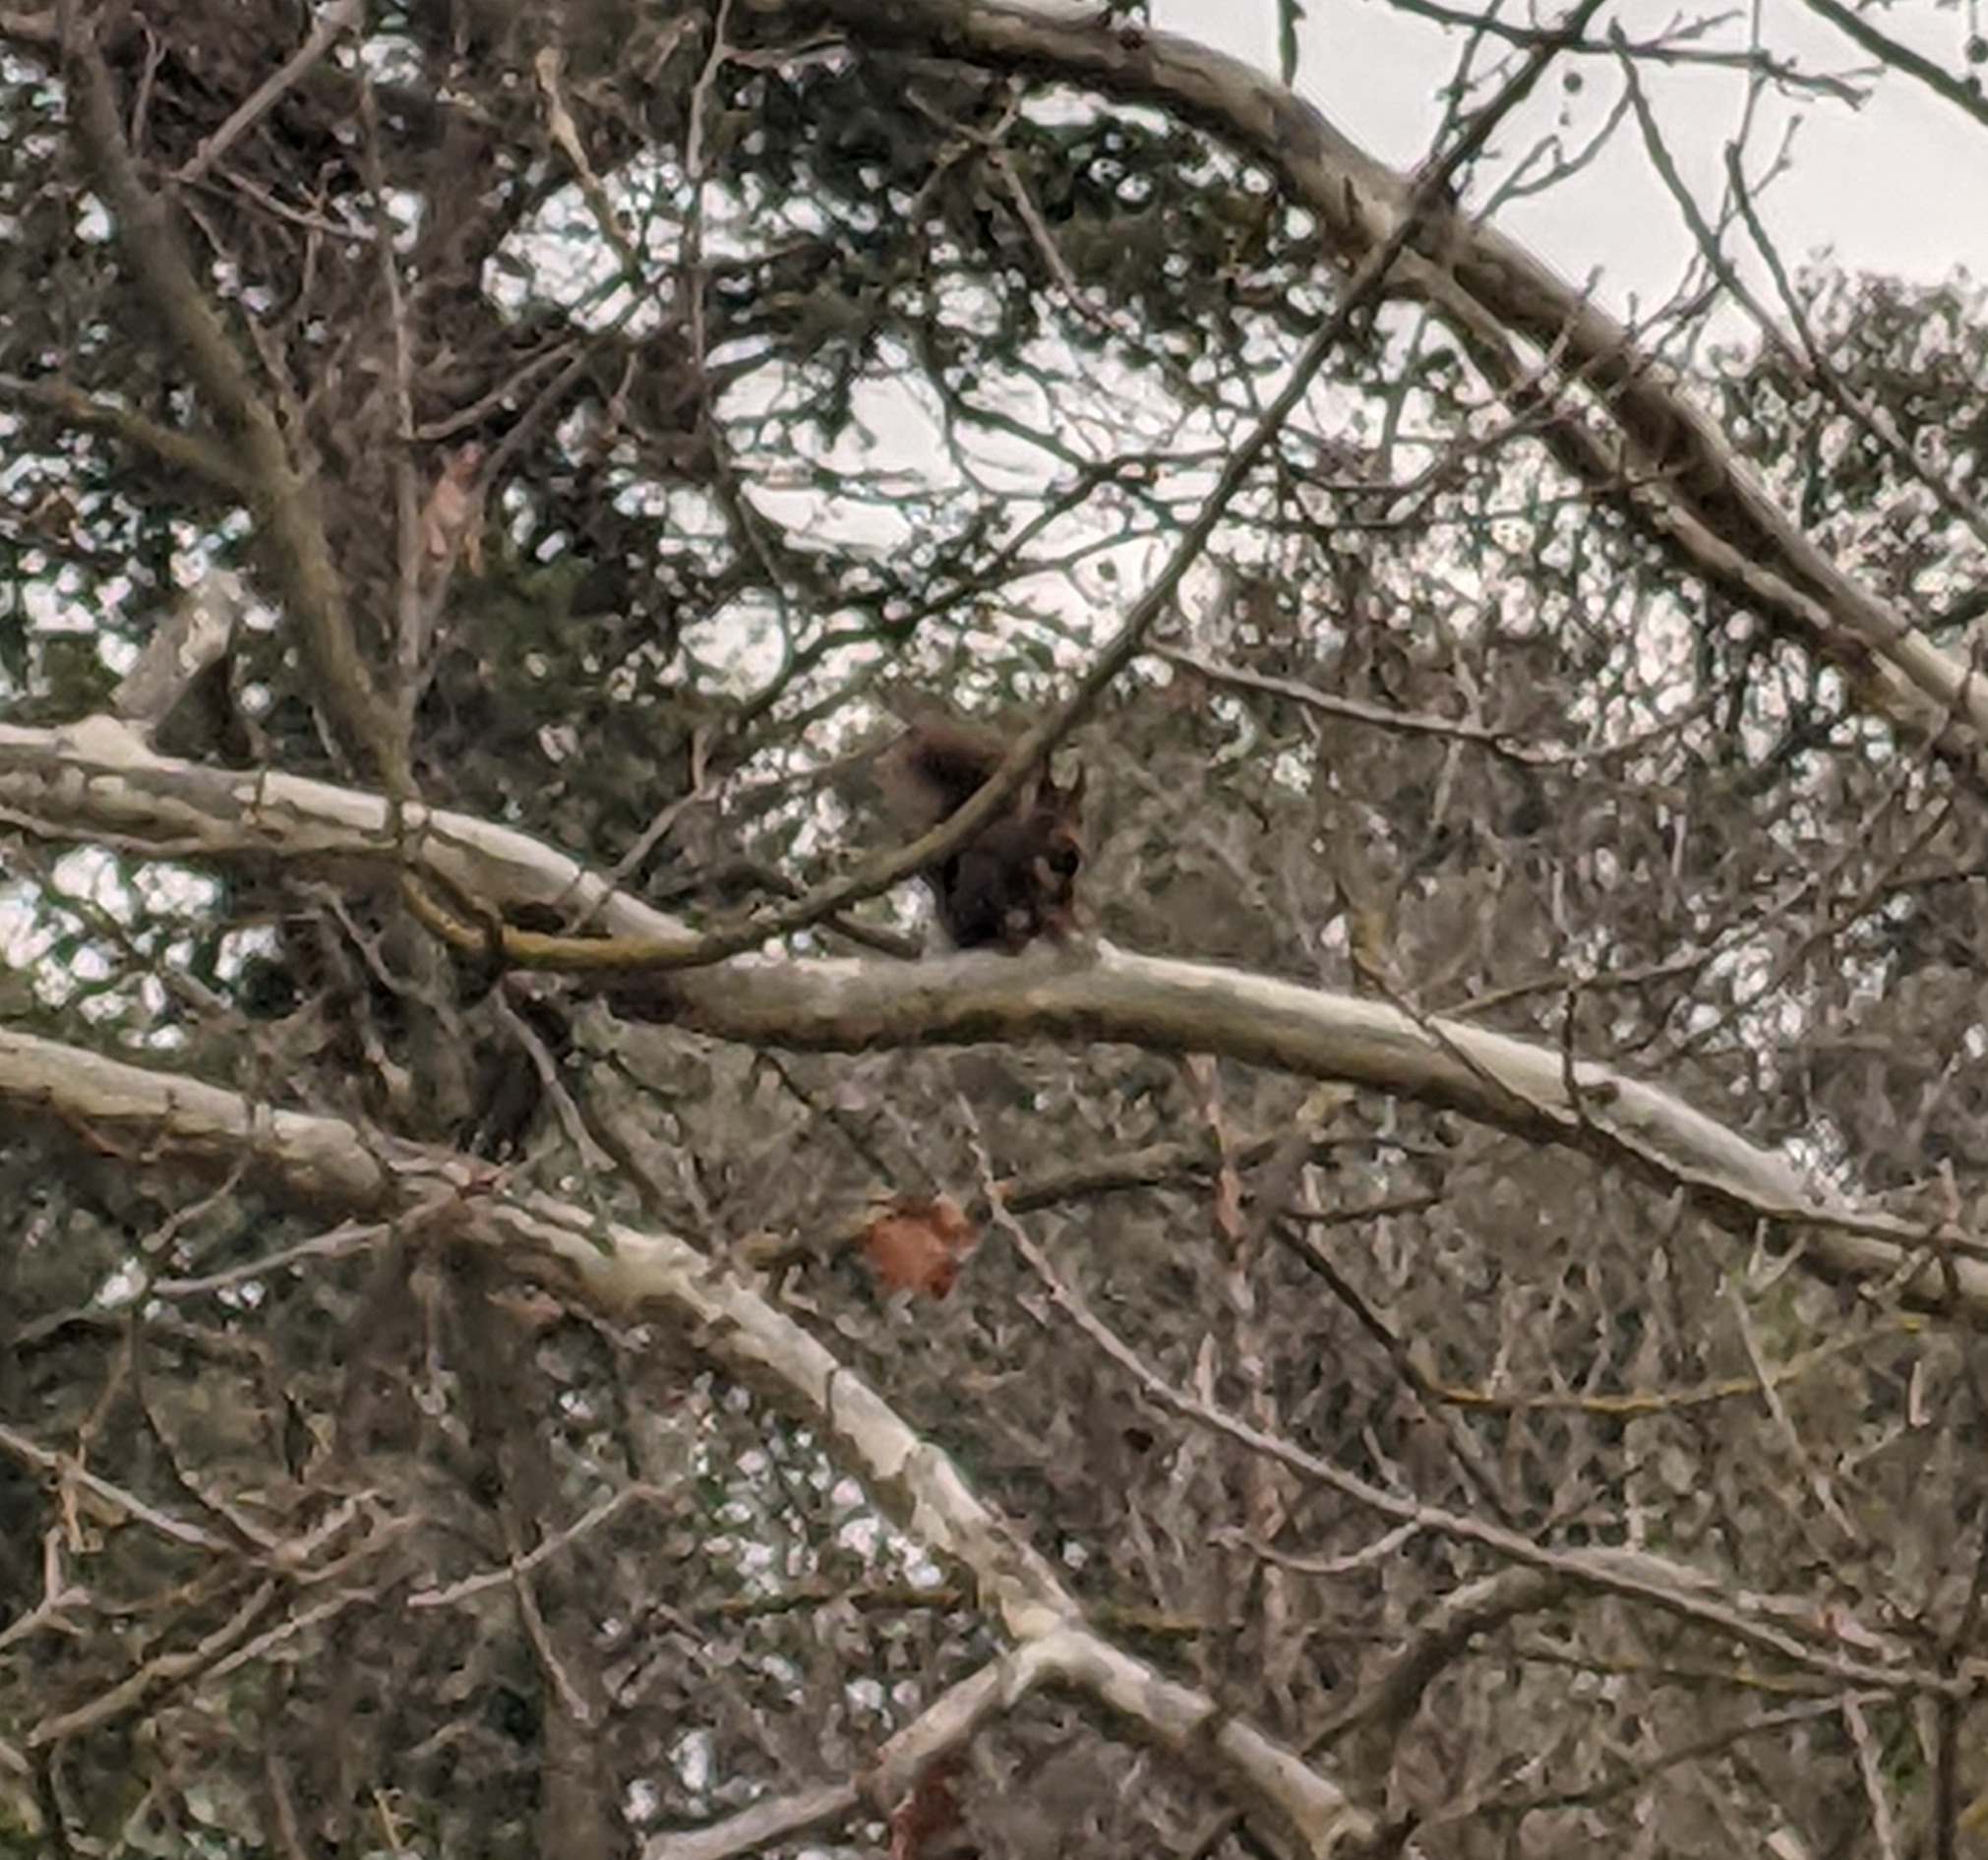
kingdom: Animalia
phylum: Chordata
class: Mammalia
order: Rodentia
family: Sciuridae
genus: Sciurus
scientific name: Sciurus vulgaris
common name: Eurasian red squirrel
